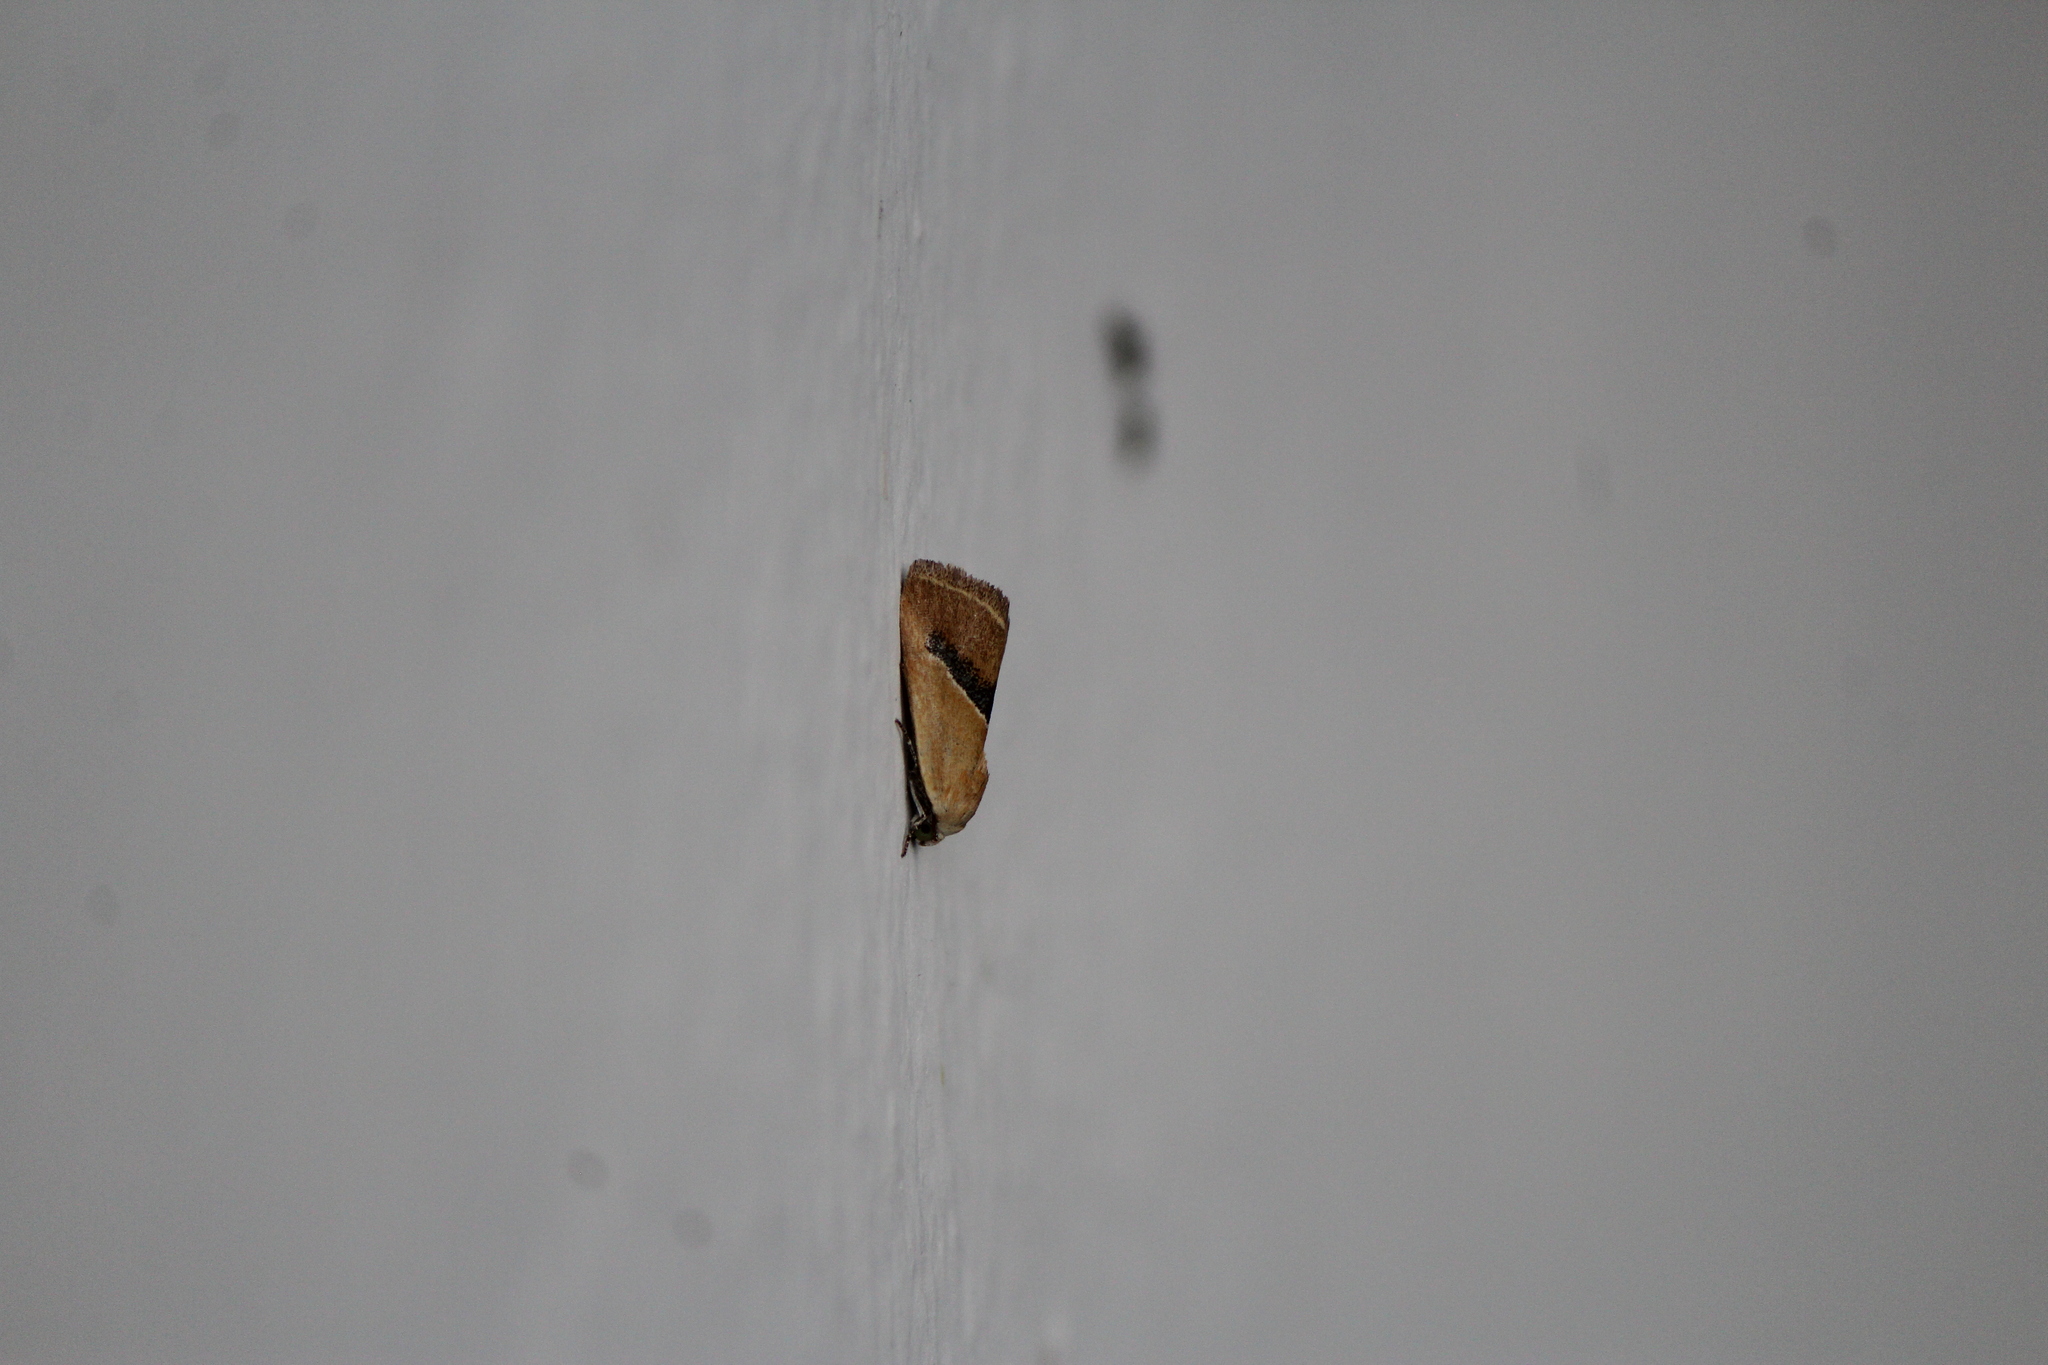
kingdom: Animalia
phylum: Arthropoda
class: Insecta
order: Lepidoptera
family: Noctuidae
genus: Ponometia
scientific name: Ponometia venustula
